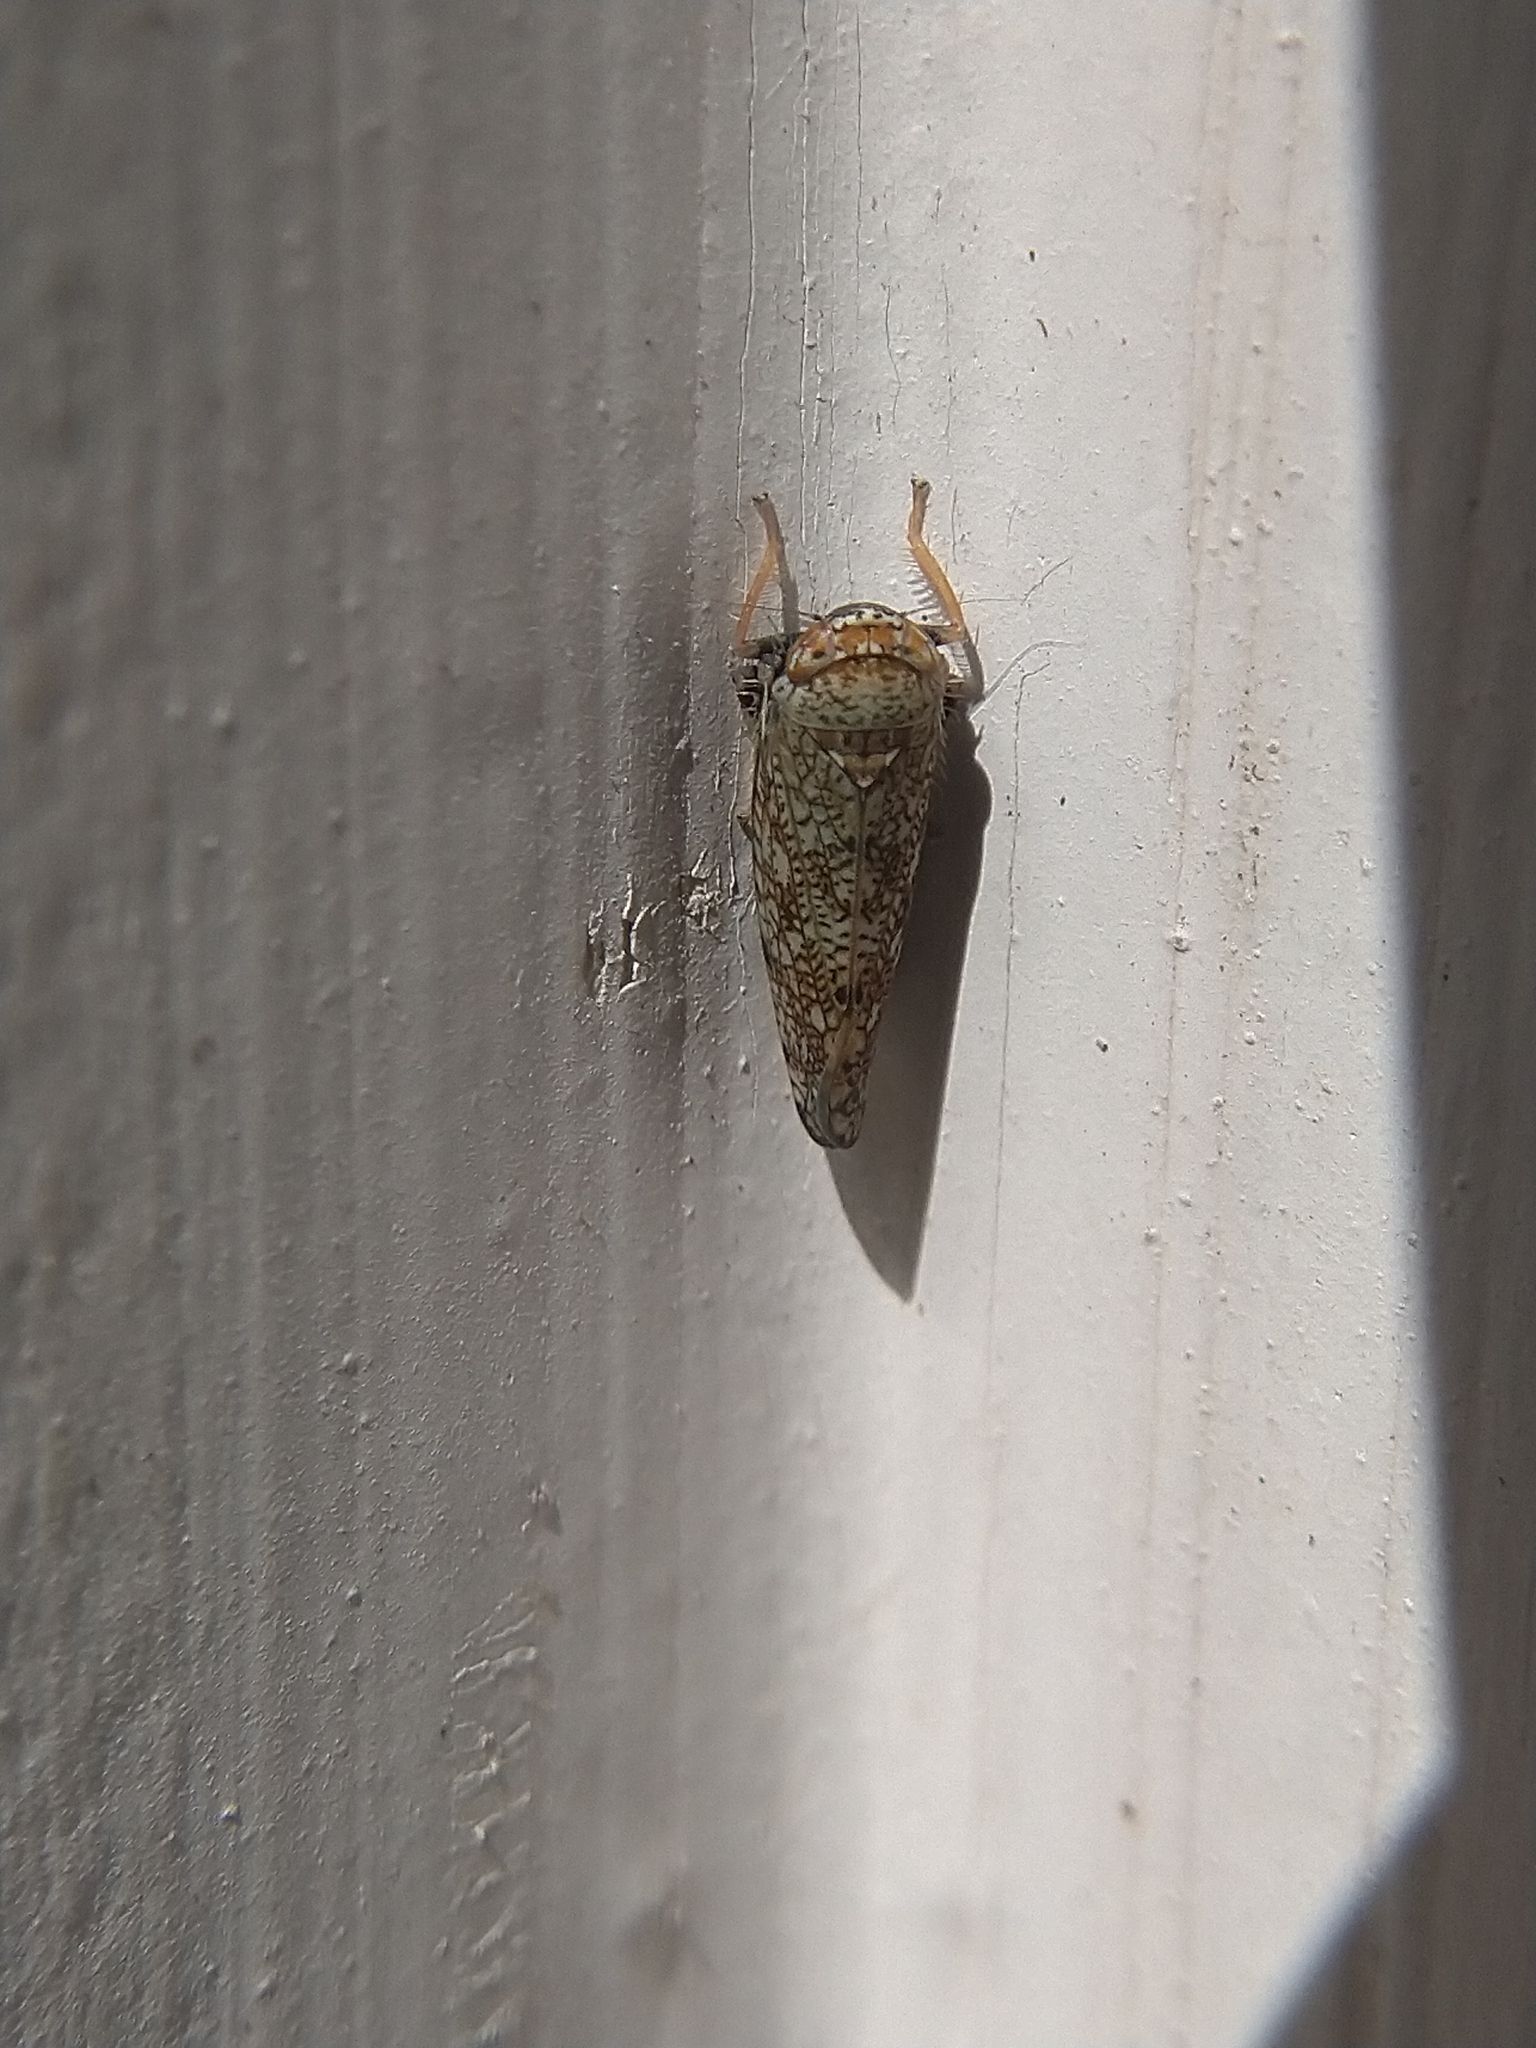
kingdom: Animalia
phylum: Arthropoda
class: Insecta
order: Hemiptera
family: Cicadellidae
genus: Orientus
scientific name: Orientus ishidae
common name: Japanese leafhopper
